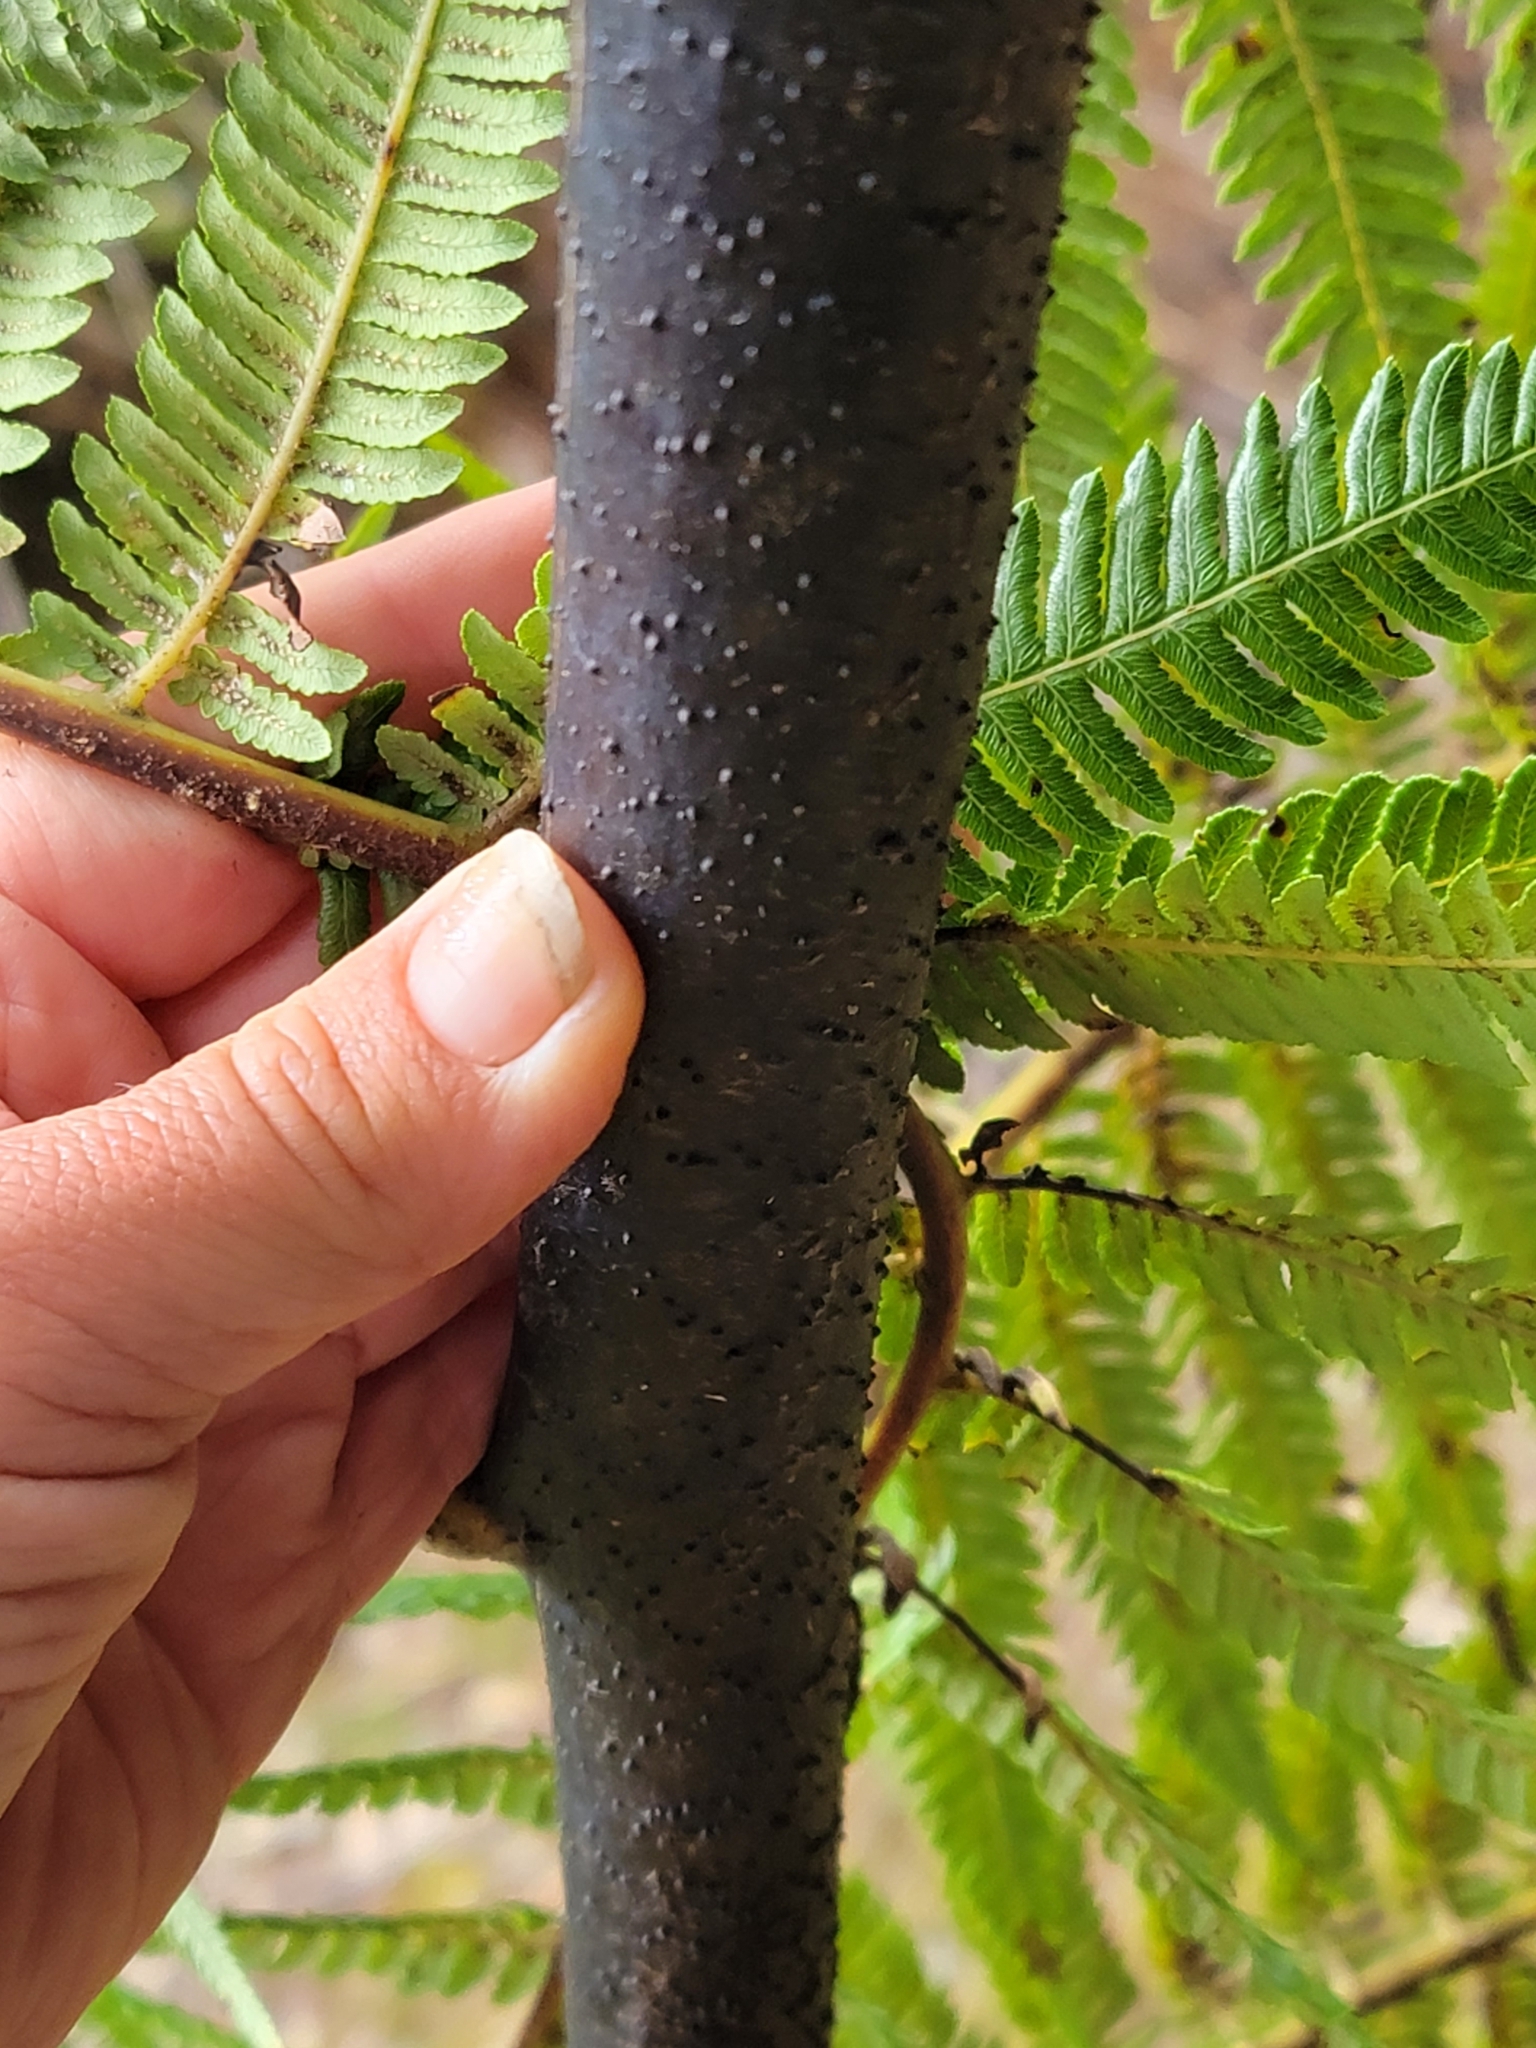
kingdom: Plantae
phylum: Tracheophyta
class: Polypodiopsida
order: Cyatheales
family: Cyatheaceae
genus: Sphaeropteris
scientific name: Sphaeropteris medullaris
